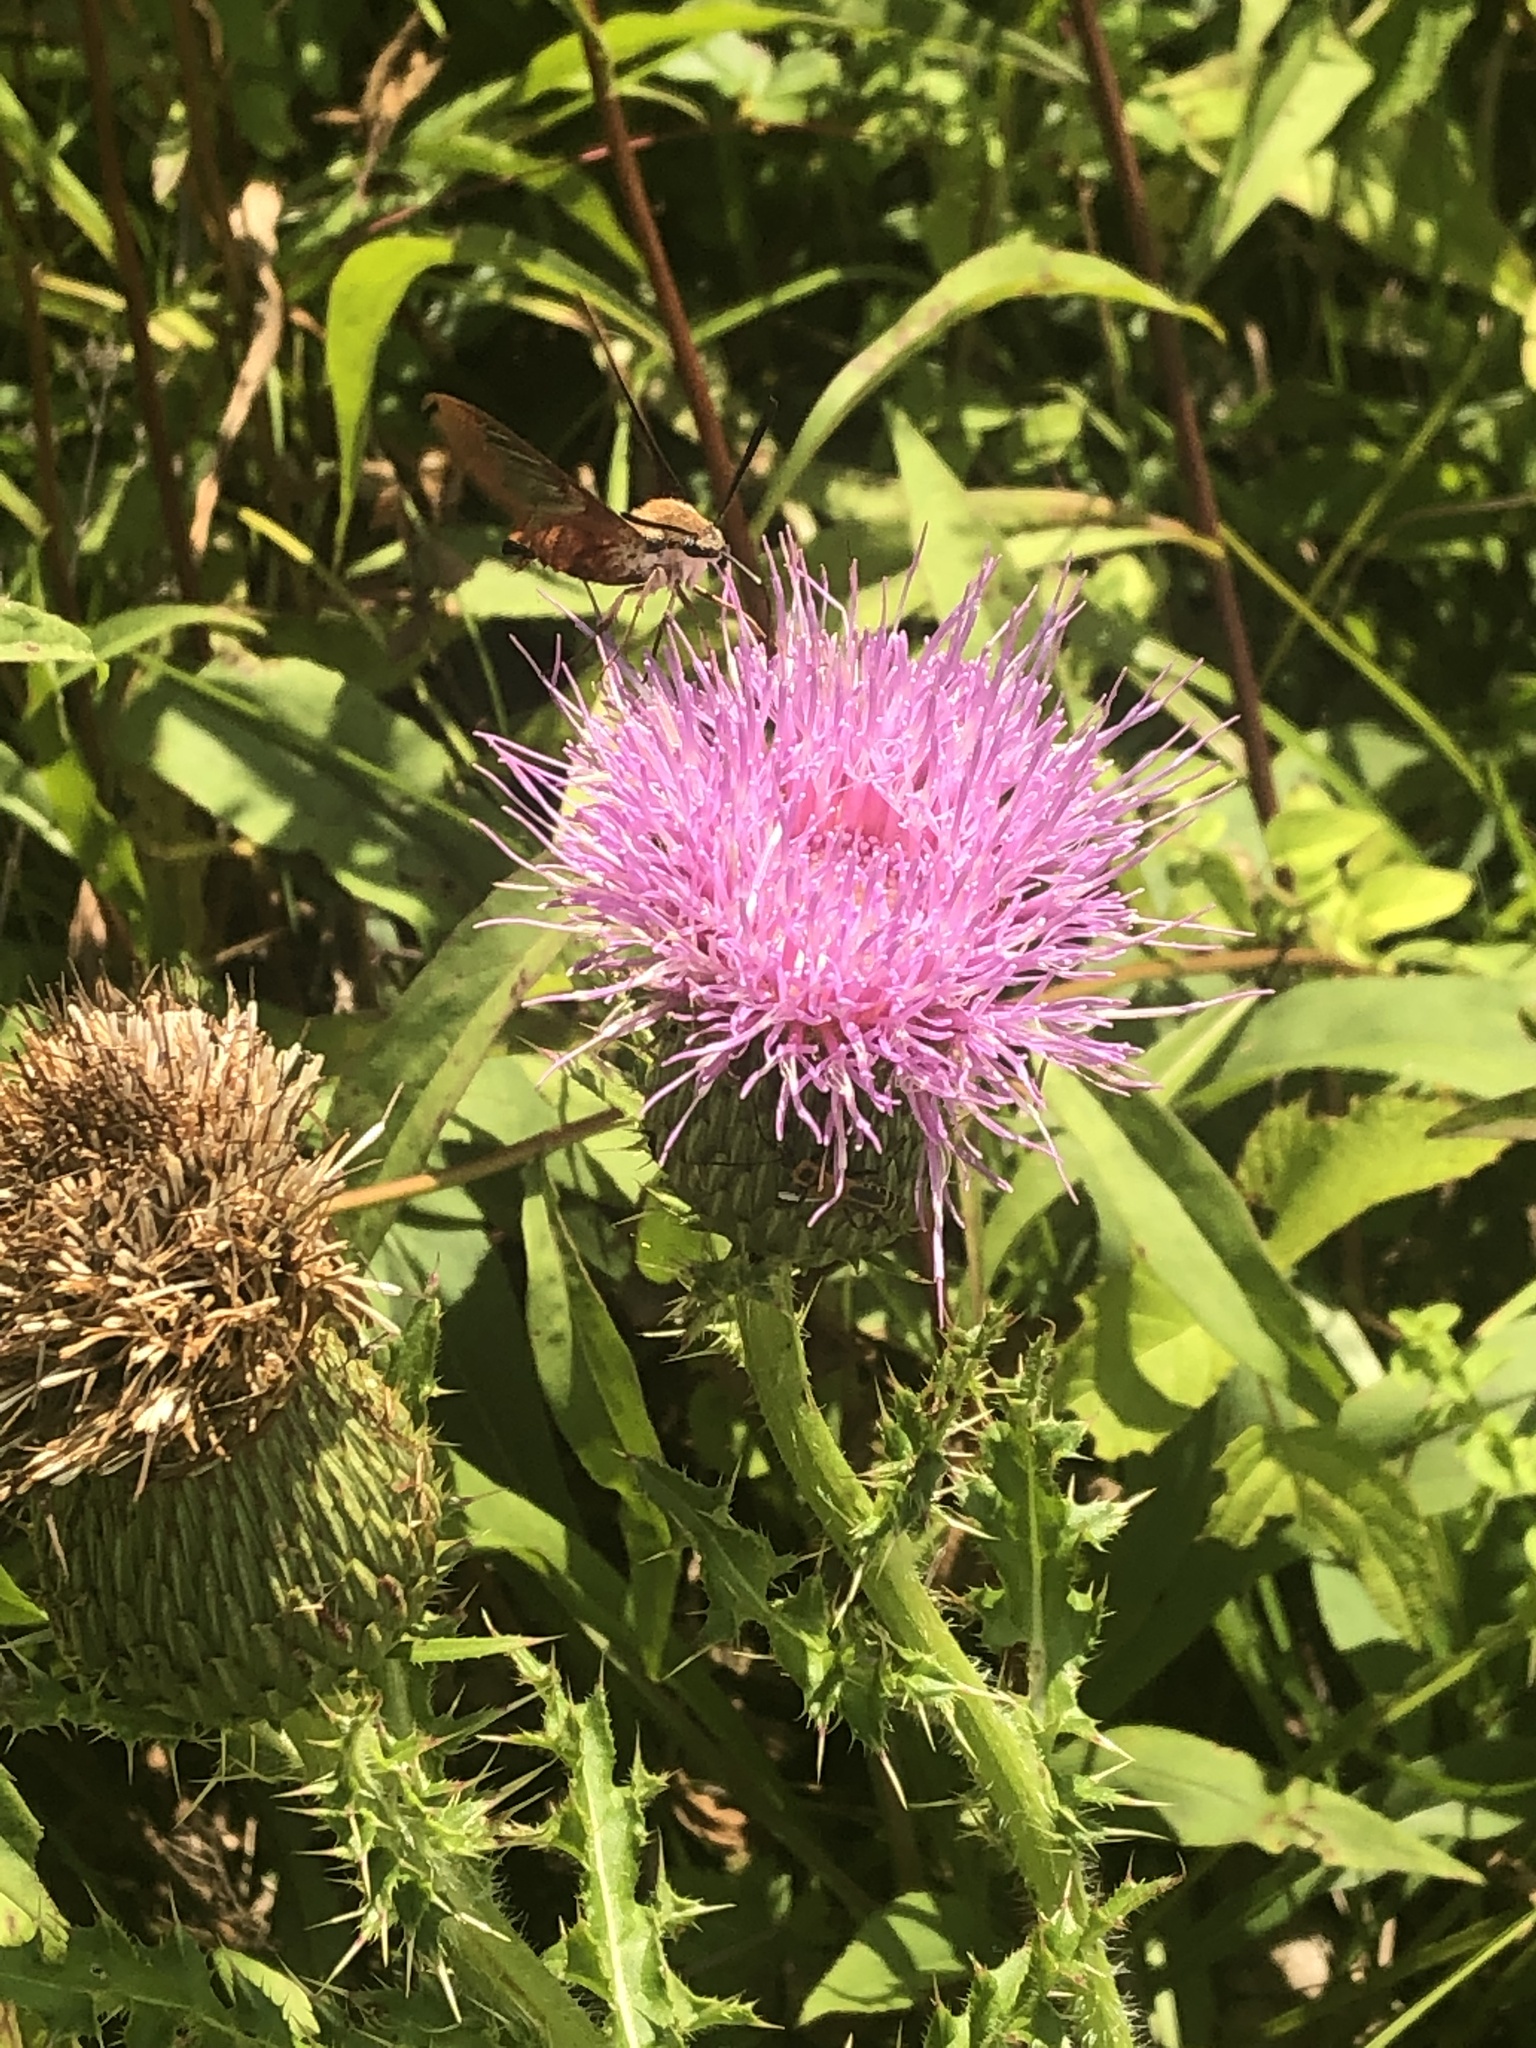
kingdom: Animalia
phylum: Arthropoda
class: Insecta
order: Lepidoptera
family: Sphingidae
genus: Hemaris
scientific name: Hemaris thysbe
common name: Common clear-wing
